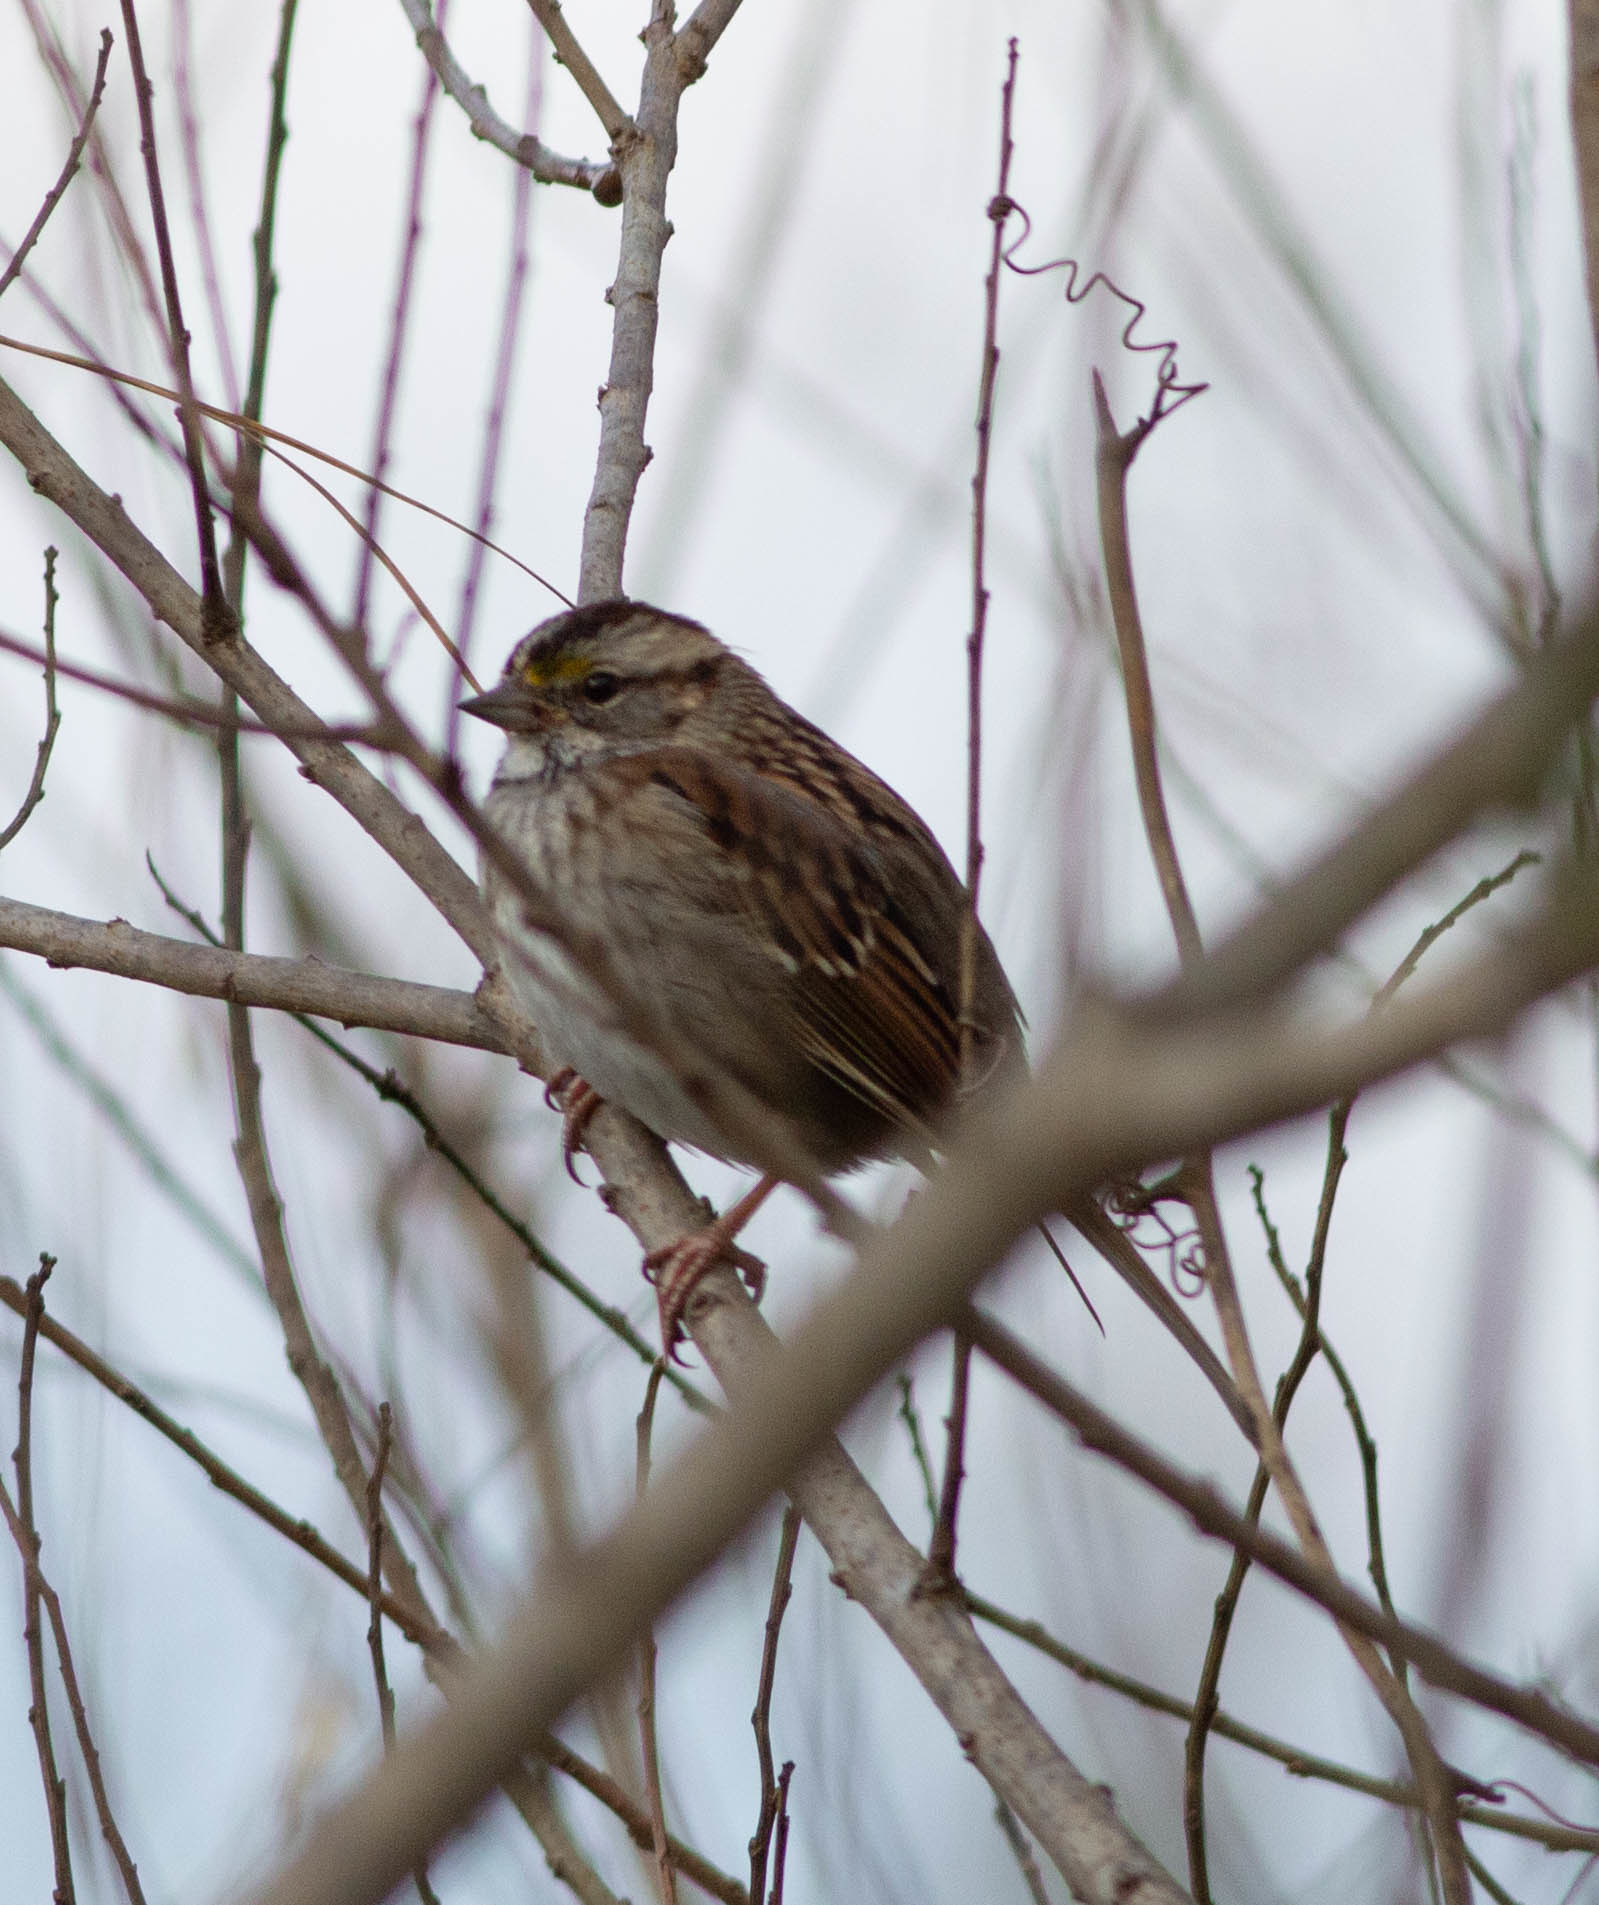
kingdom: Animalia
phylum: Chordata
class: Aves
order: Passeriformes
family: Passerellidae
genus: Zonotrichia
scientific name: Zonotrichia albicollis
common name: White-throated sparrow
